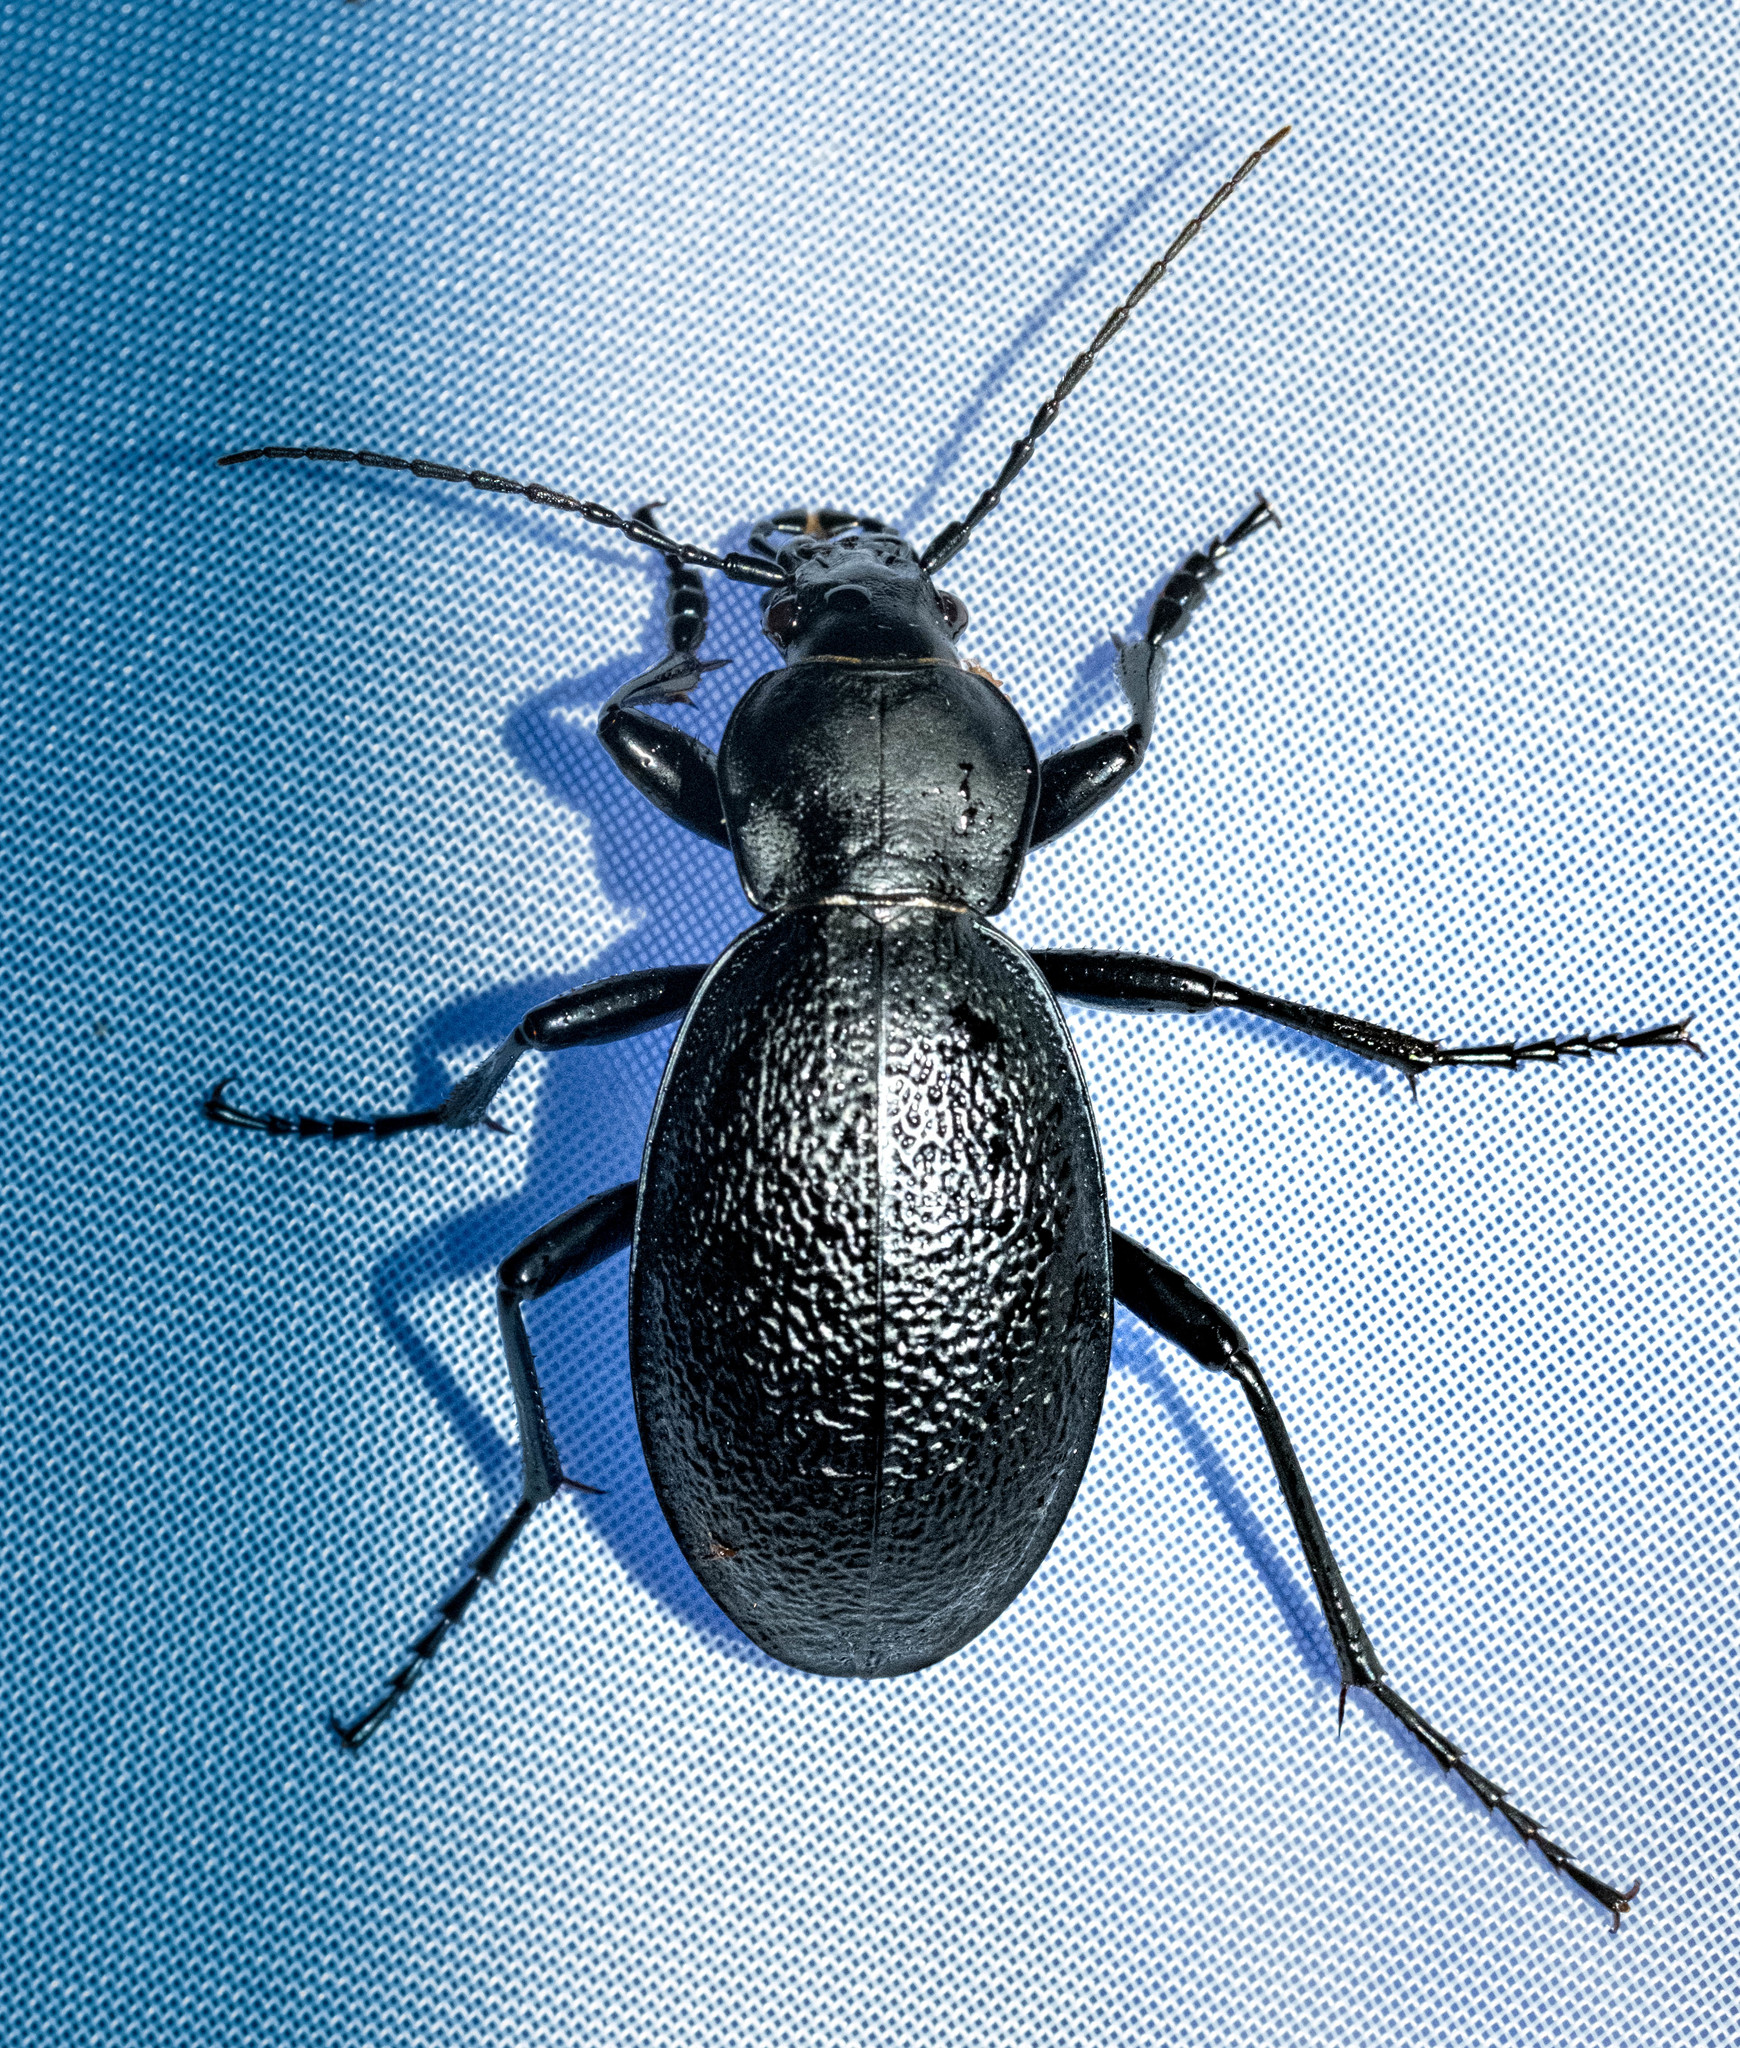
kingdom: Animalia
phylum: Arthropoda
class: Insecta
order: Coleoptera
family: Carabidae
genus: Carabus
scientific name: Carabus coriaceus
